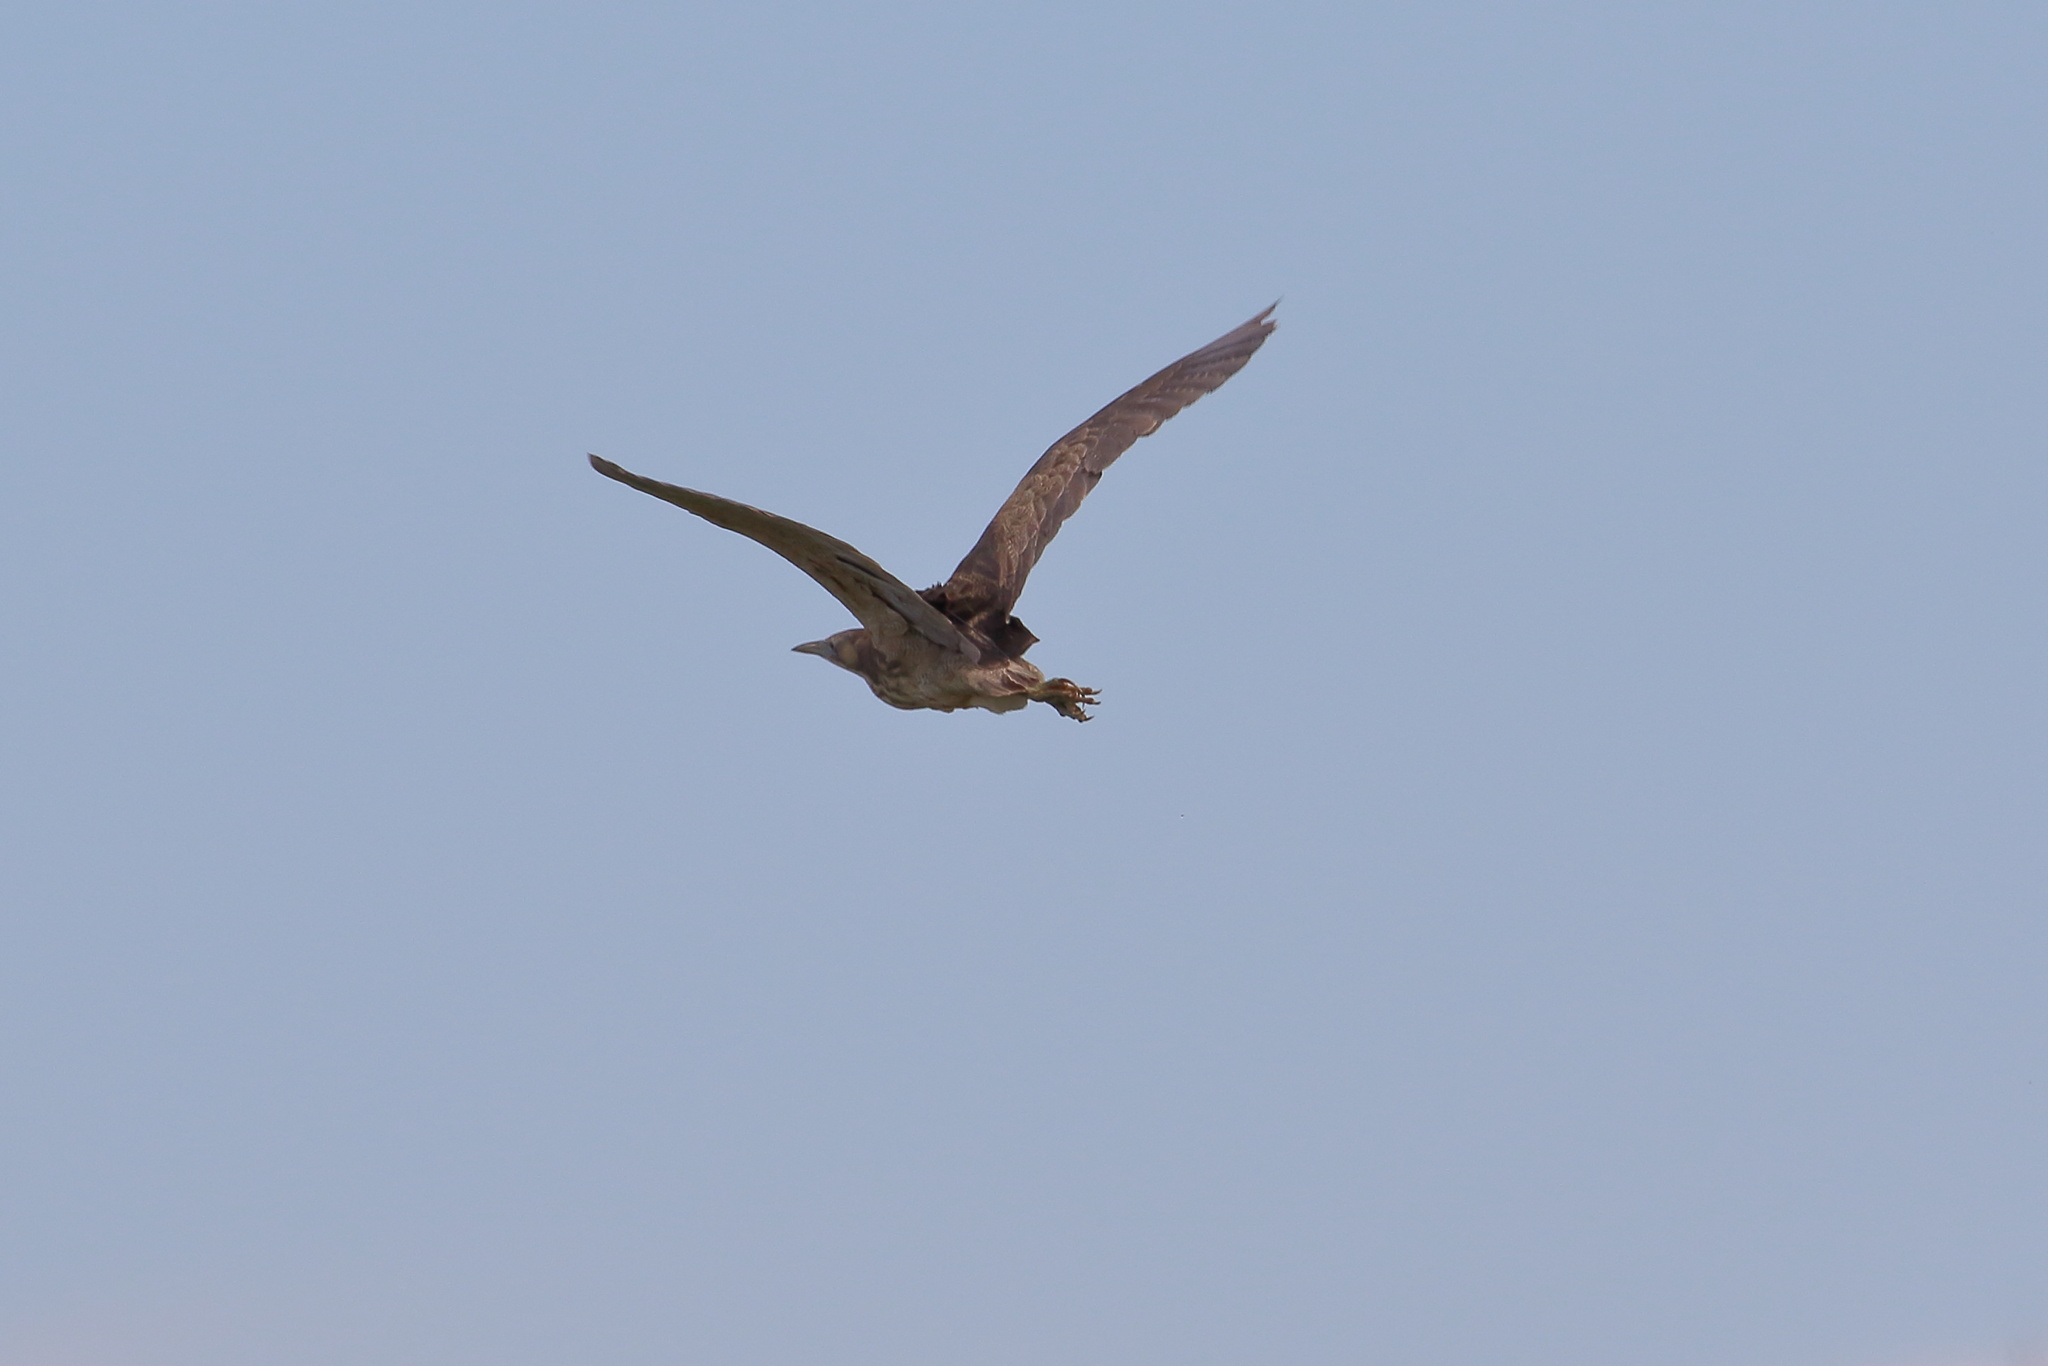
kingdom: Animalia
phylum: Chordata
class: Aves
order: Pelecaniformes
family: Ardeidae
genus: Botaurus
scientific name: Botaurus poiciloptilus
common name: Australasian bittern
